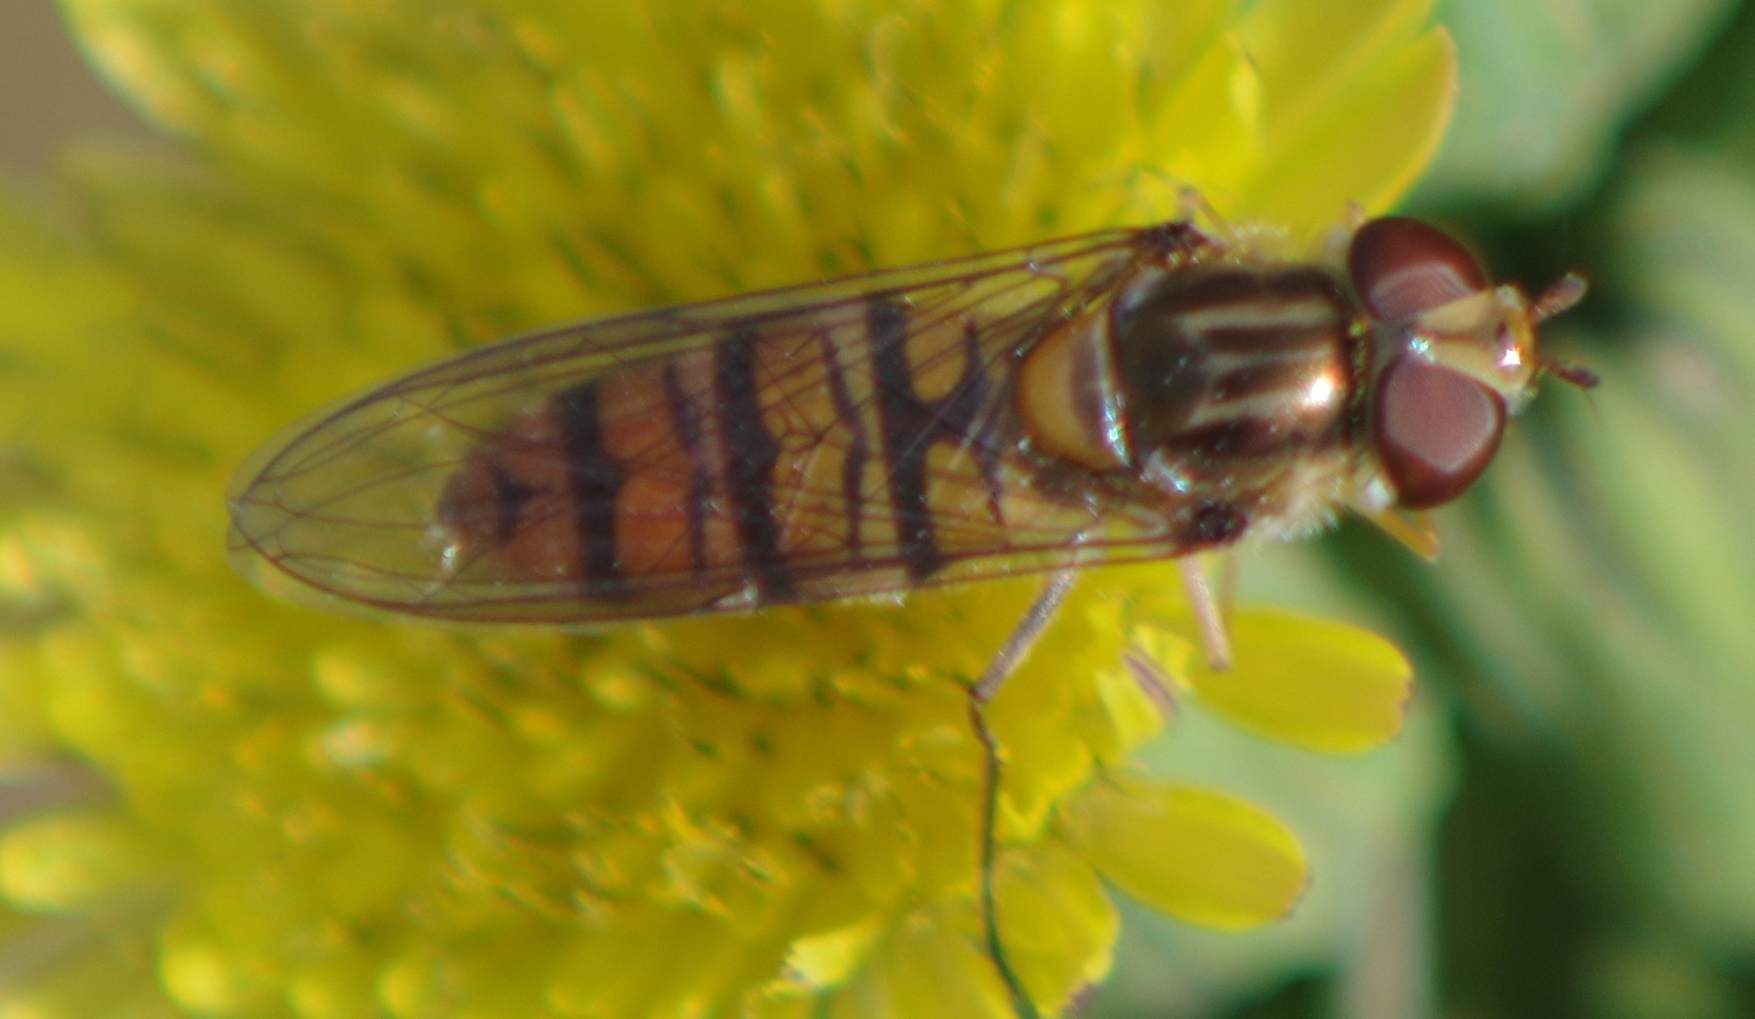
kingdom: Animalia
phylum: Arthropoda
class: Insecta
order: Diptera
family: Syrphidae
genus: Episyrphus
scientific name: Episyrphus balteatus
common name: Marmalade hoverfly
